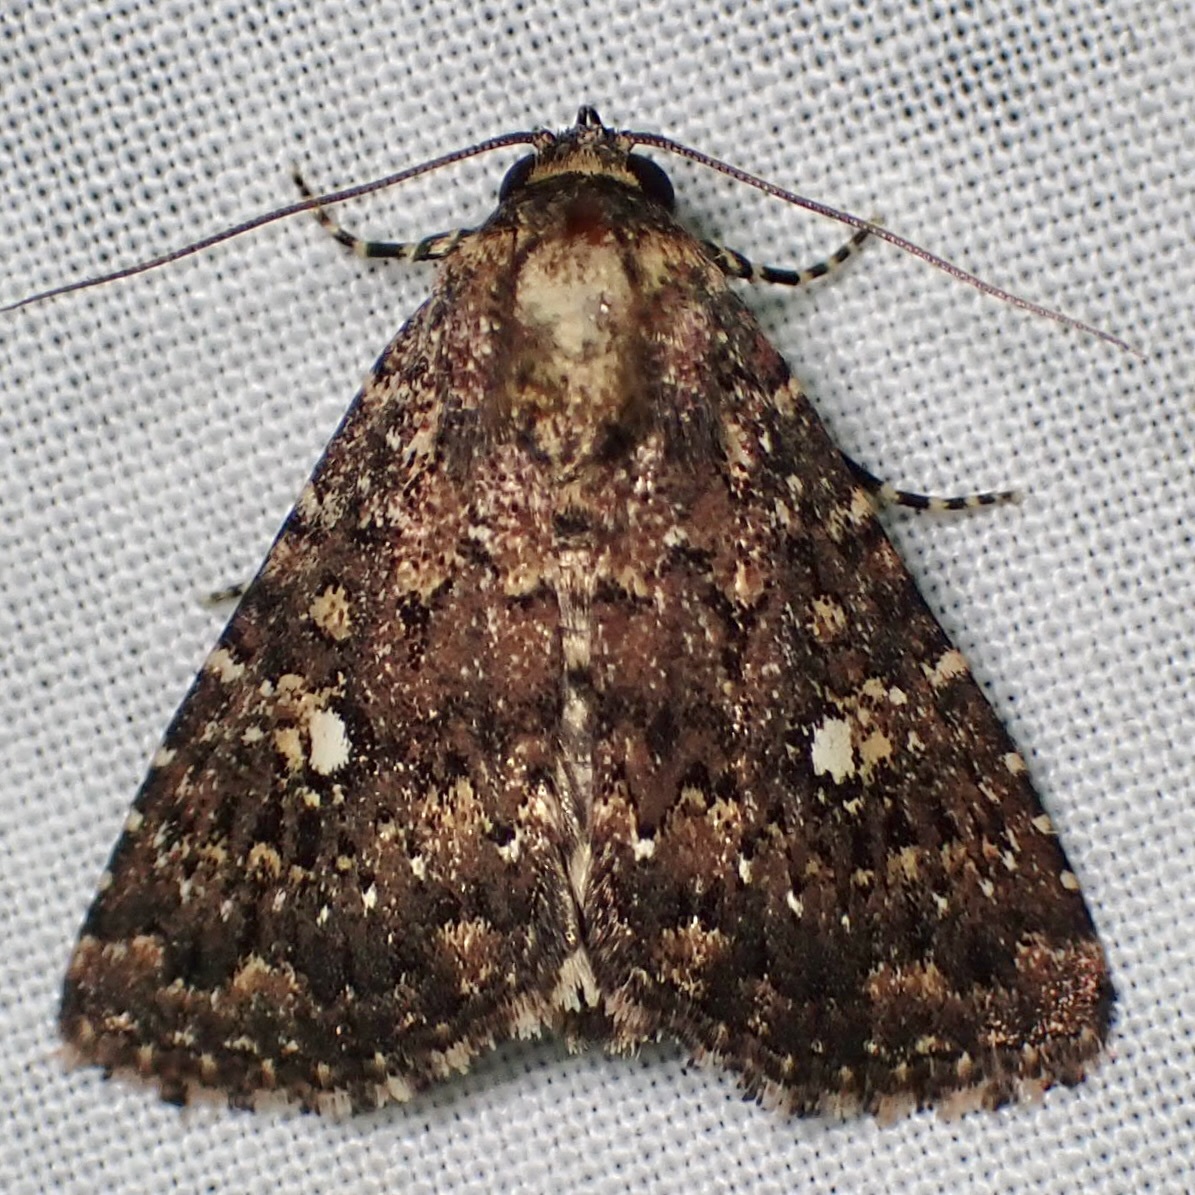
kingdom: Animalia
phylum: Arthropoda
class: Insecta
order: Lepidoptera
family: Noctuidae
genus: Condica
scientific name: Condica orta
